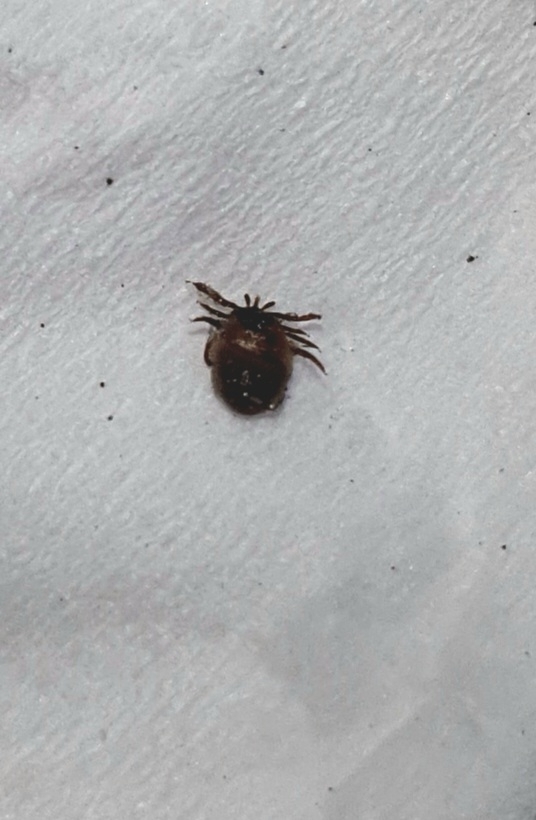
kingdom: Animalia
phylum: Arthropoda
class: Arachnida
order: Ixodida
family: Ixodidae
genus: Ixodes
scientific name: Ixodes ricinus
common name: Castor bean tick
